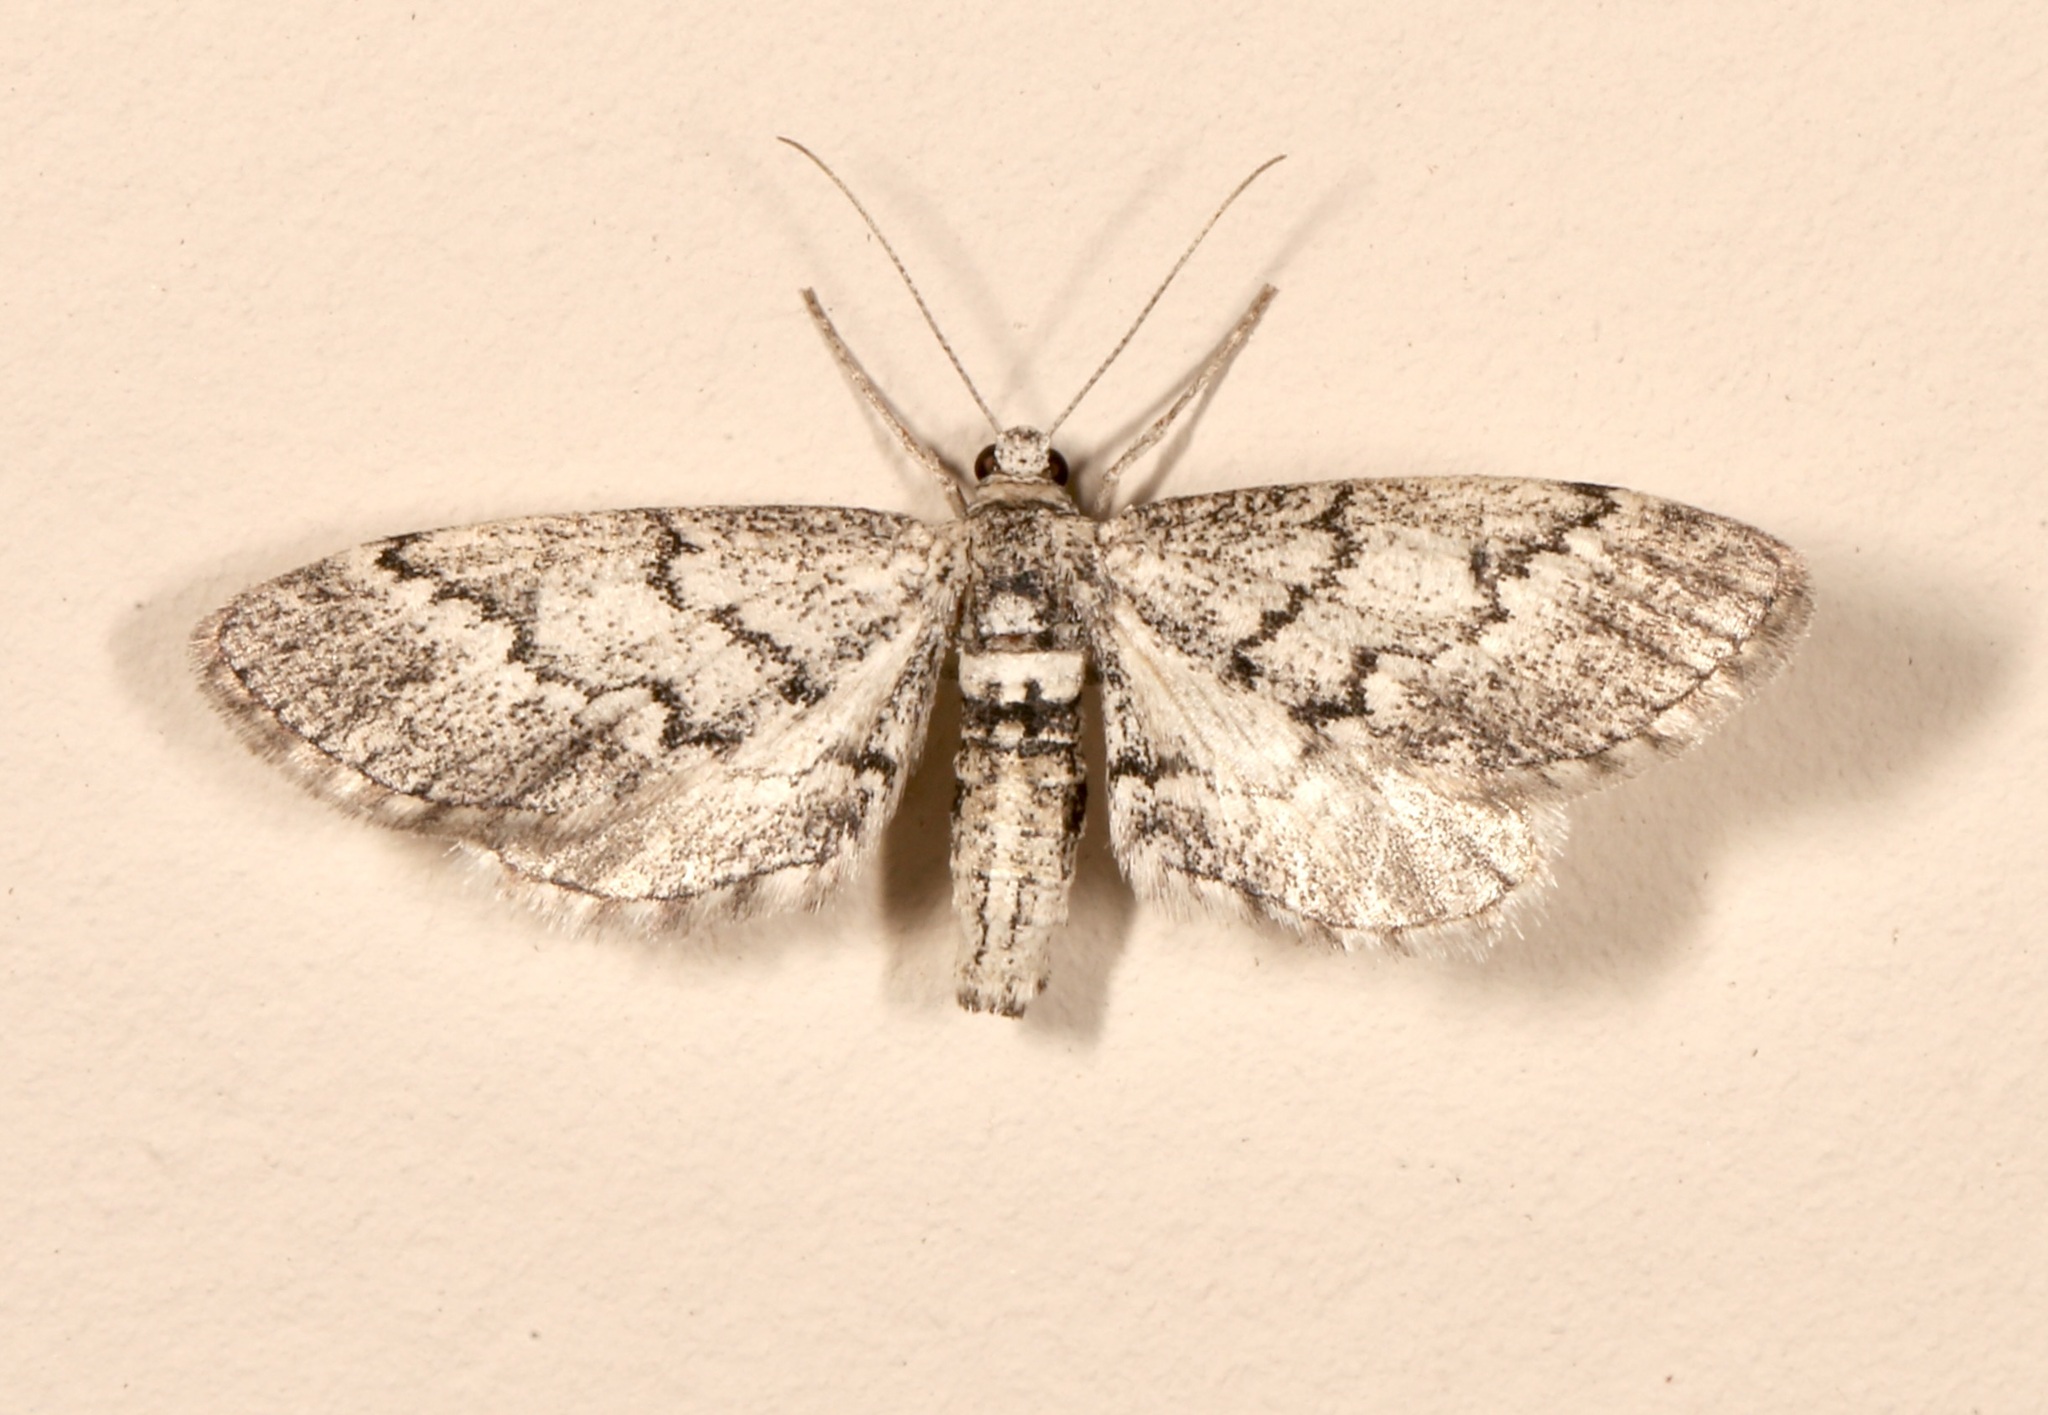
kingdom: Animalia
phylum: Arthropoda
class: Insecta
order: Lepidoptera
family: Geometridae
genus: Glaucina
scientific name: Glaucina eupetheciaria
